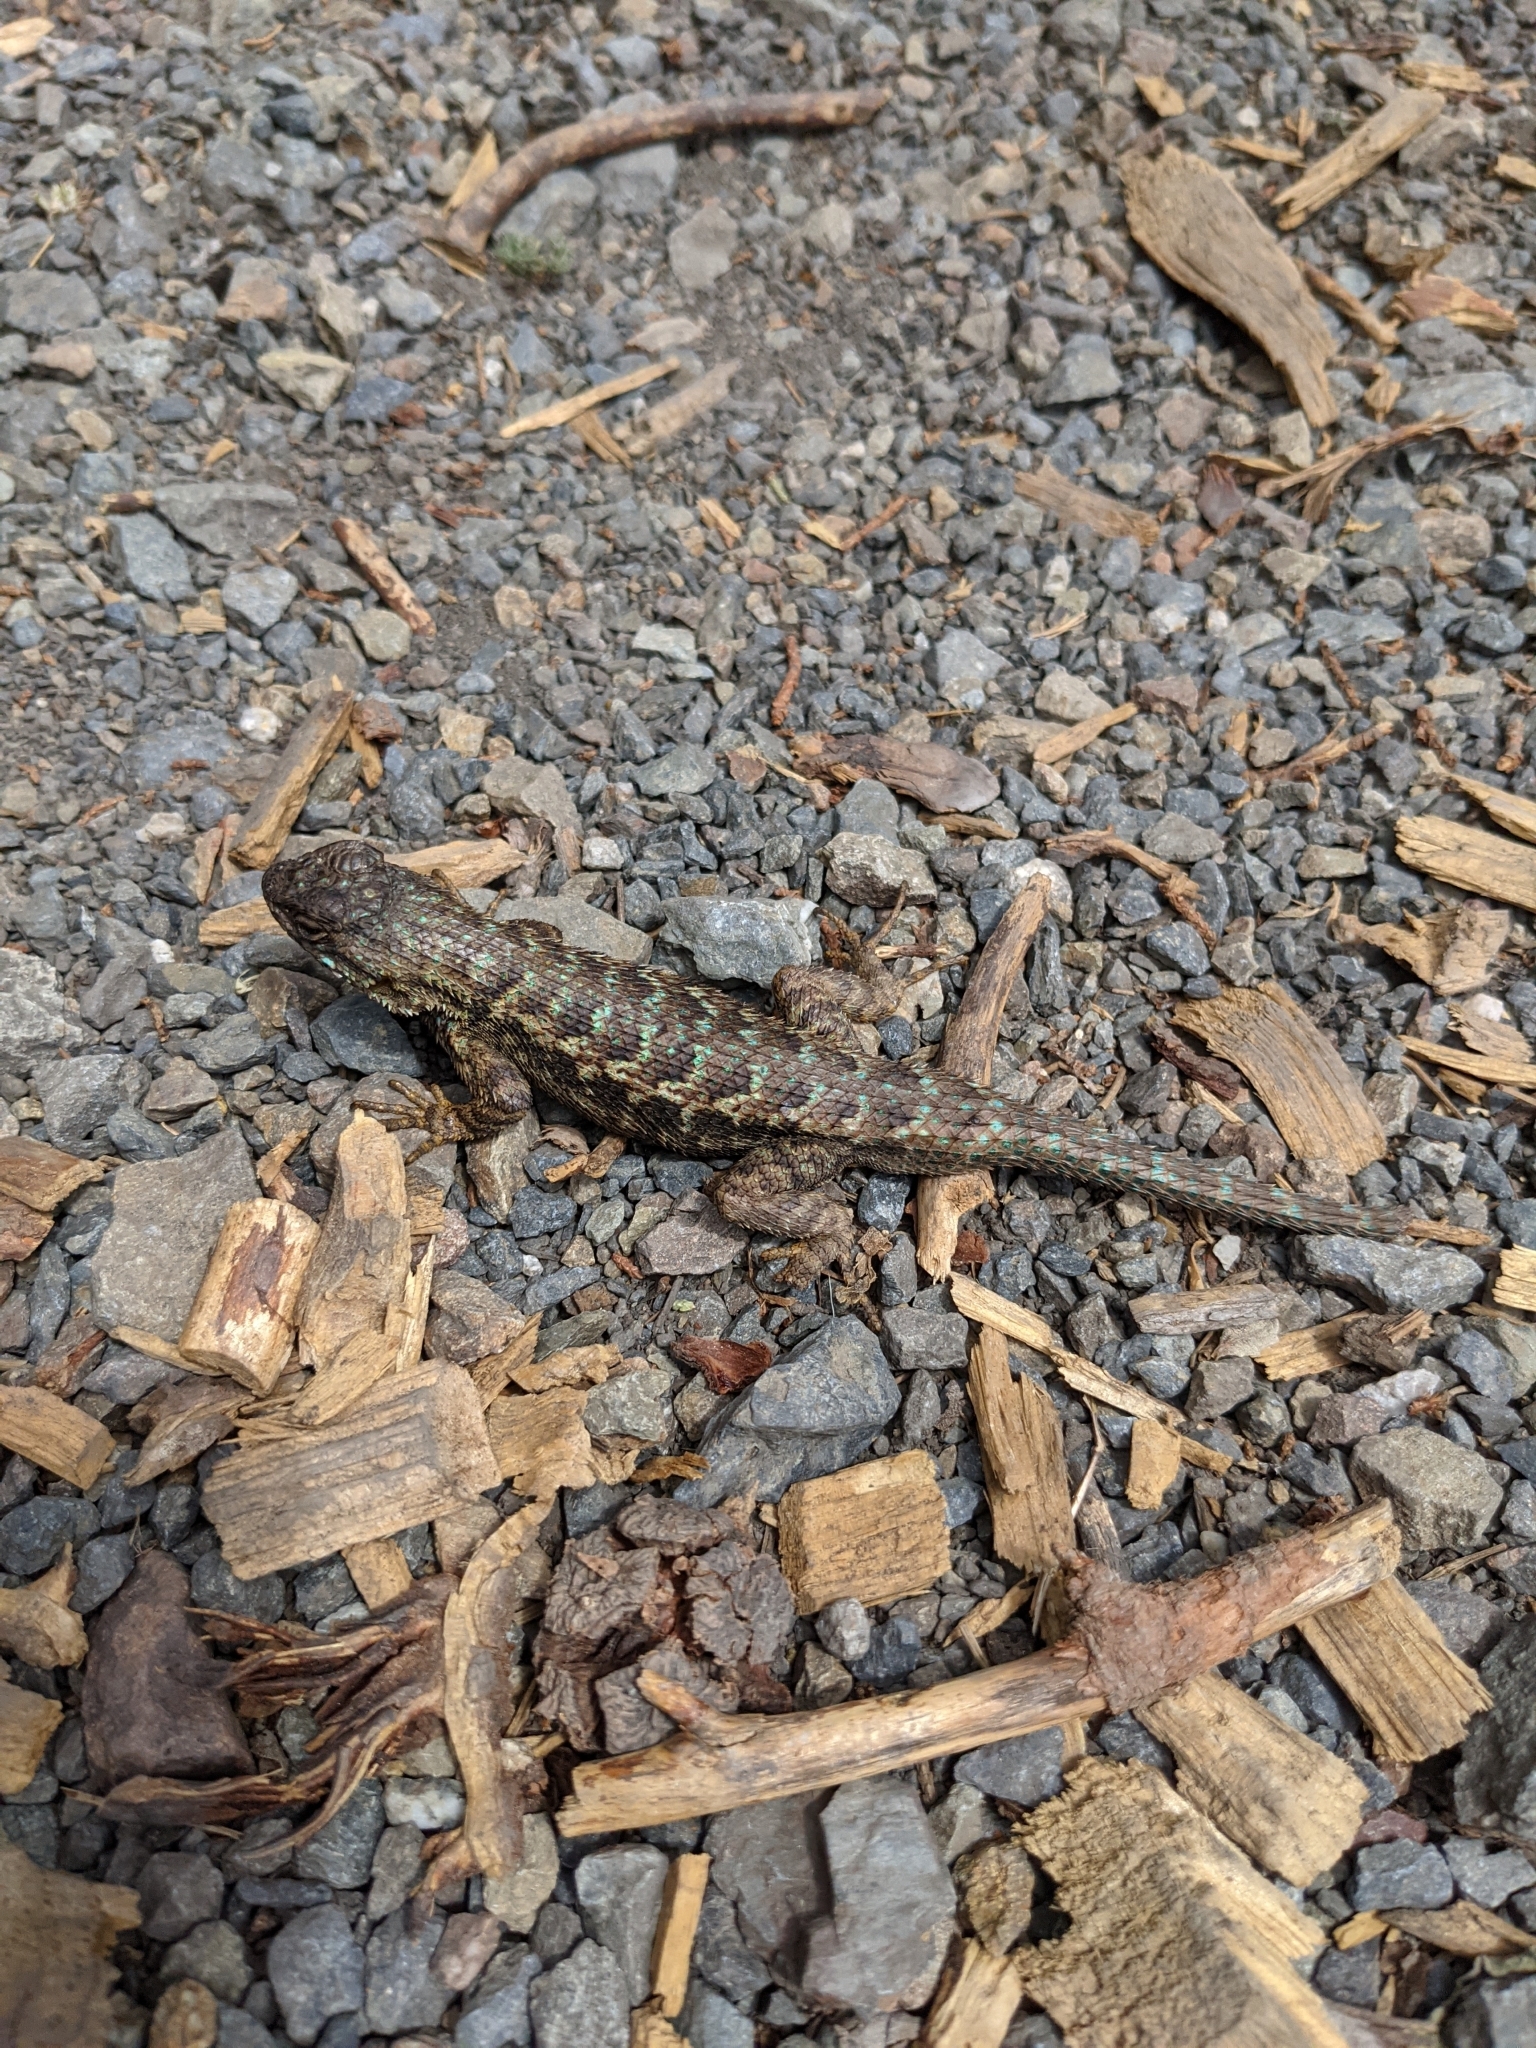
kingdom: Animalia
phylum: Chordata
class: Squamata
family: Phrynosomatidae
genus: Sceloporus
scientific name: Sceloporus occidentalis
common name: Western fence lizard
